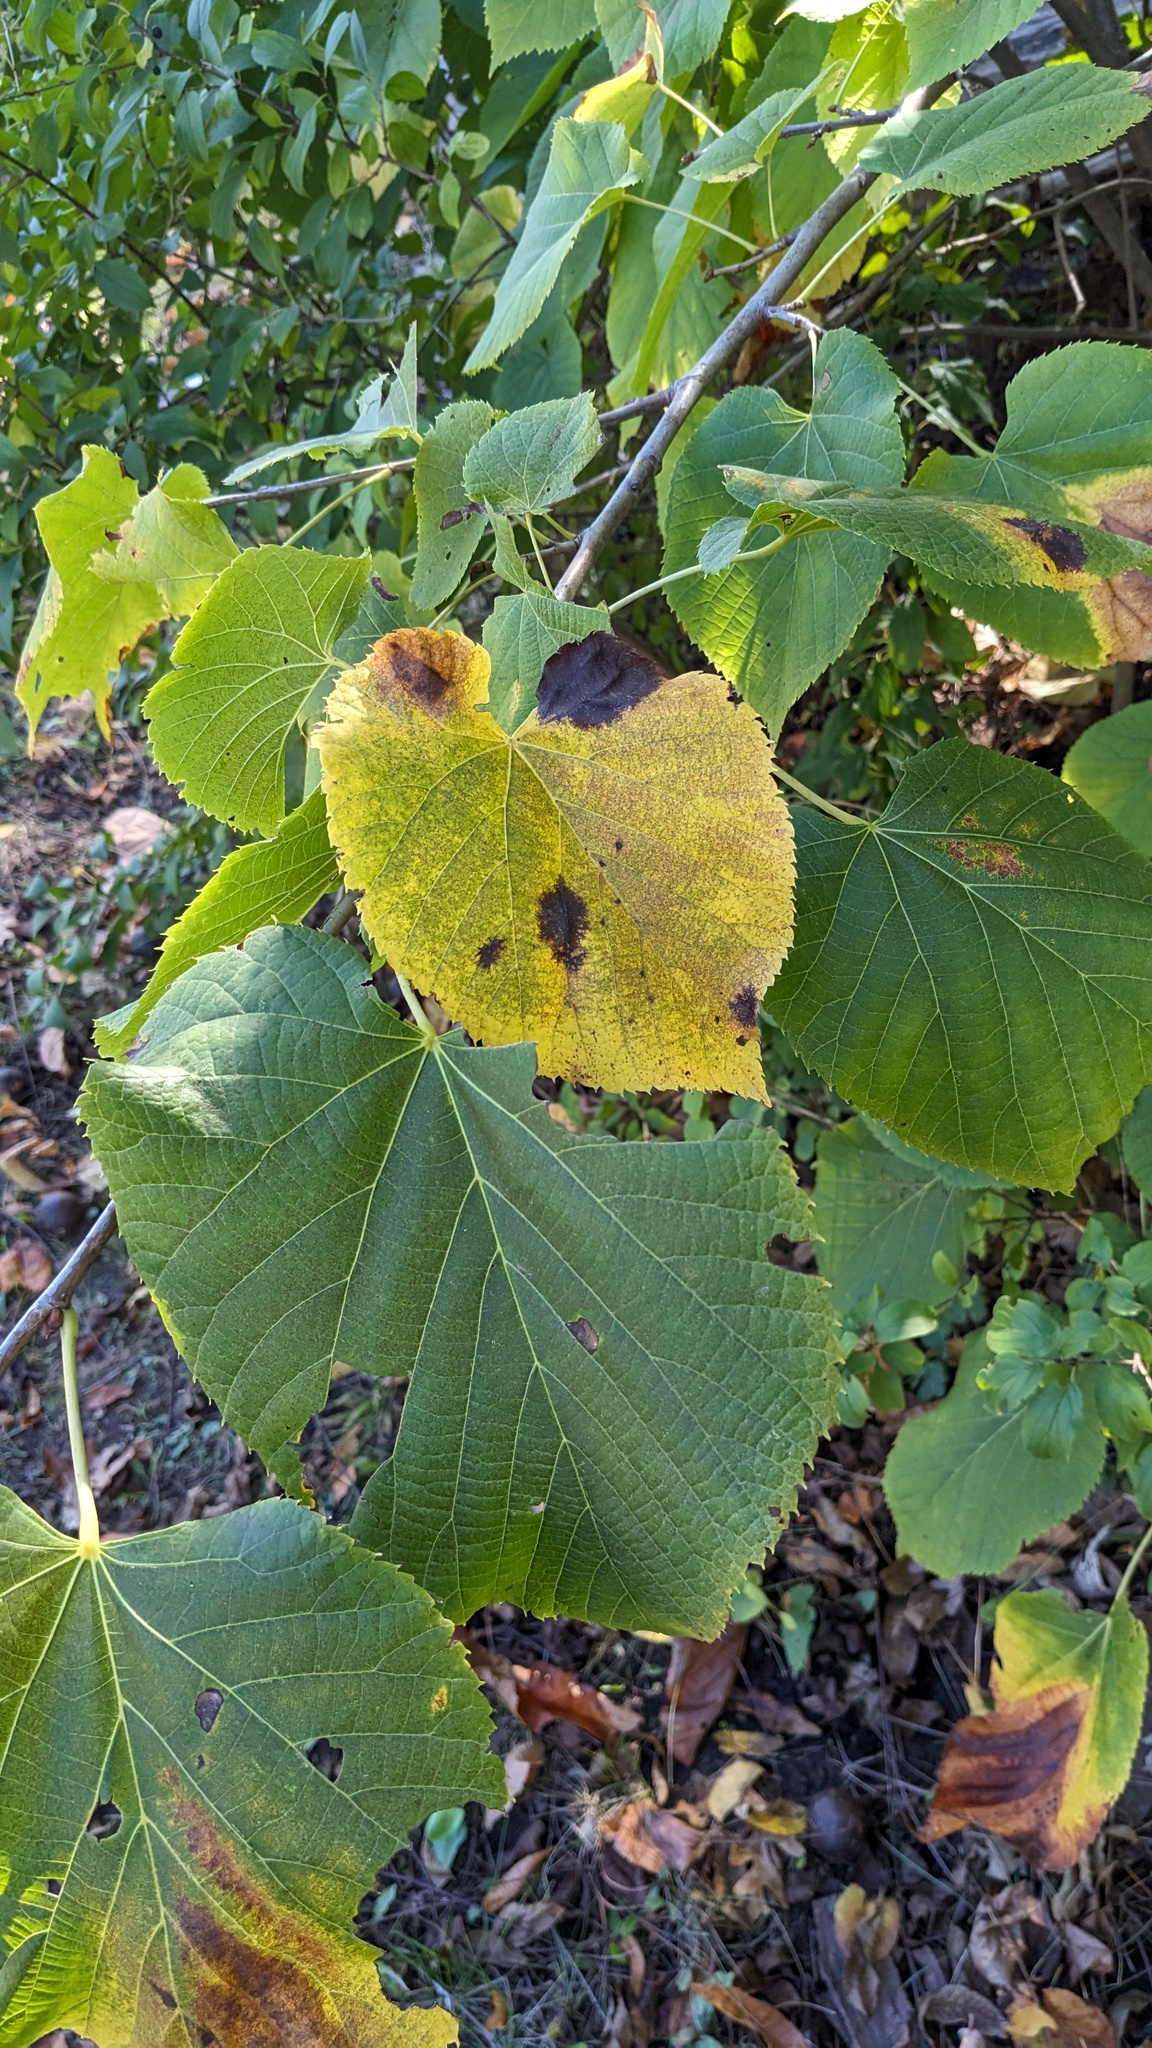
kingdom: Plantae
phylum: Tracheophyta
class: Magnoliopsida
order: Malvales
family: Malvaceae
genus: Tilia
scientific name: Tilia americana
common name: Basswood
